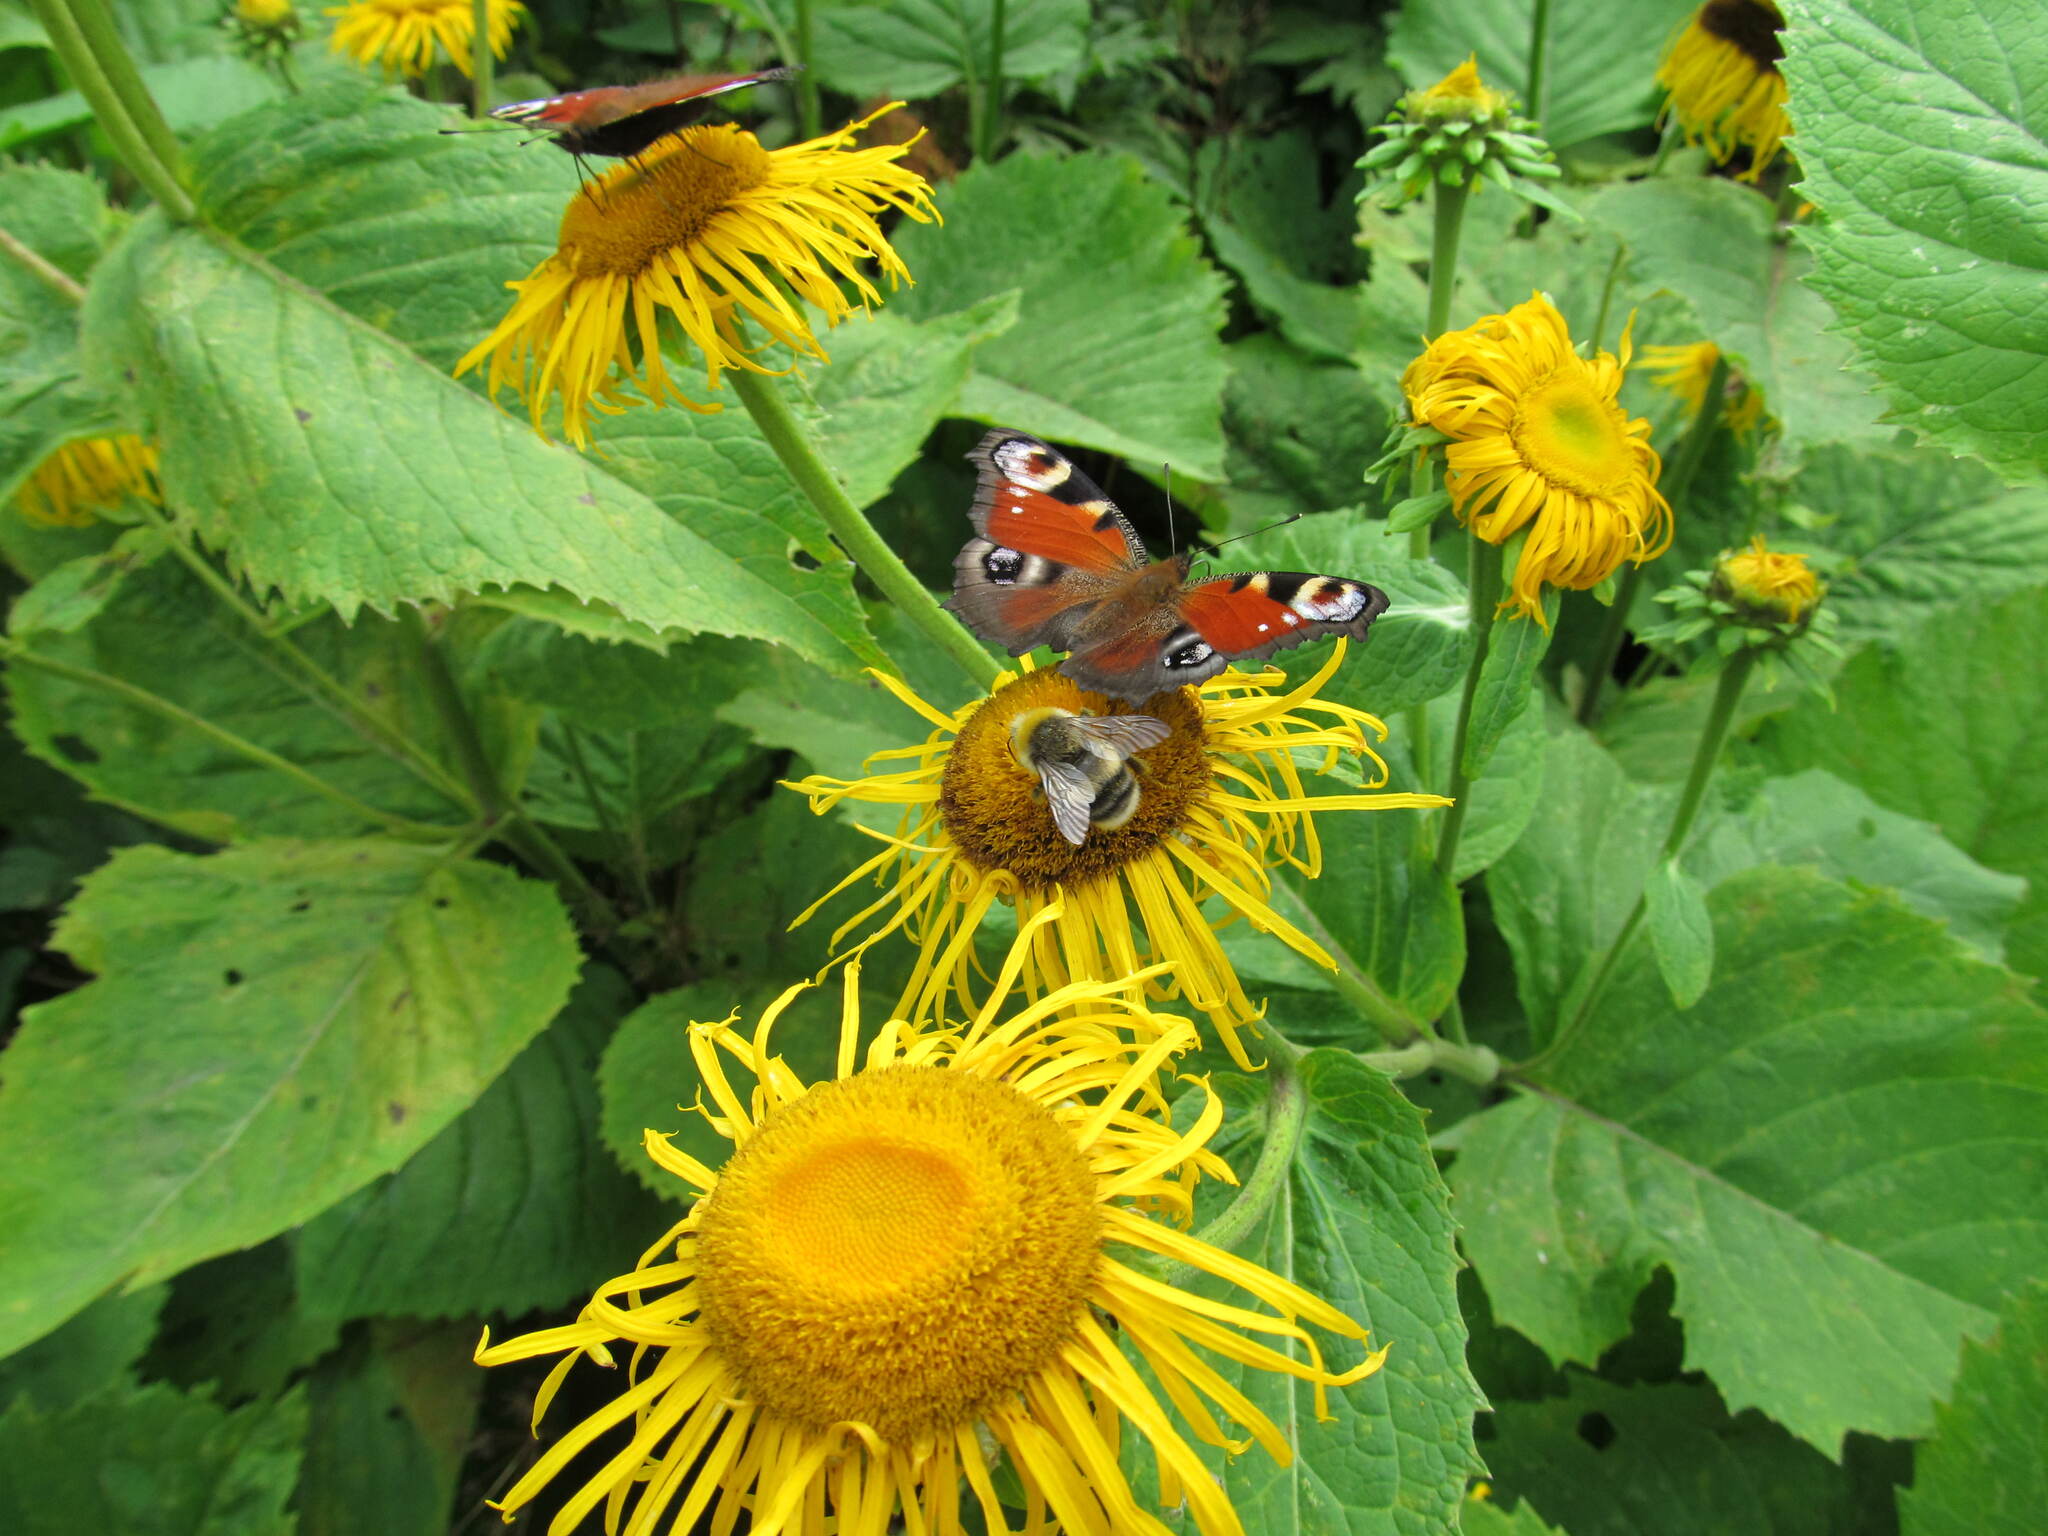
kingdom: Animalia
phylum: Arthropoda
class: Insecta
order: Hymenoptera
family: Apidae
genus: Bombus
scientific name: Bombus lucorum
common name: White-tailed bumblebee
